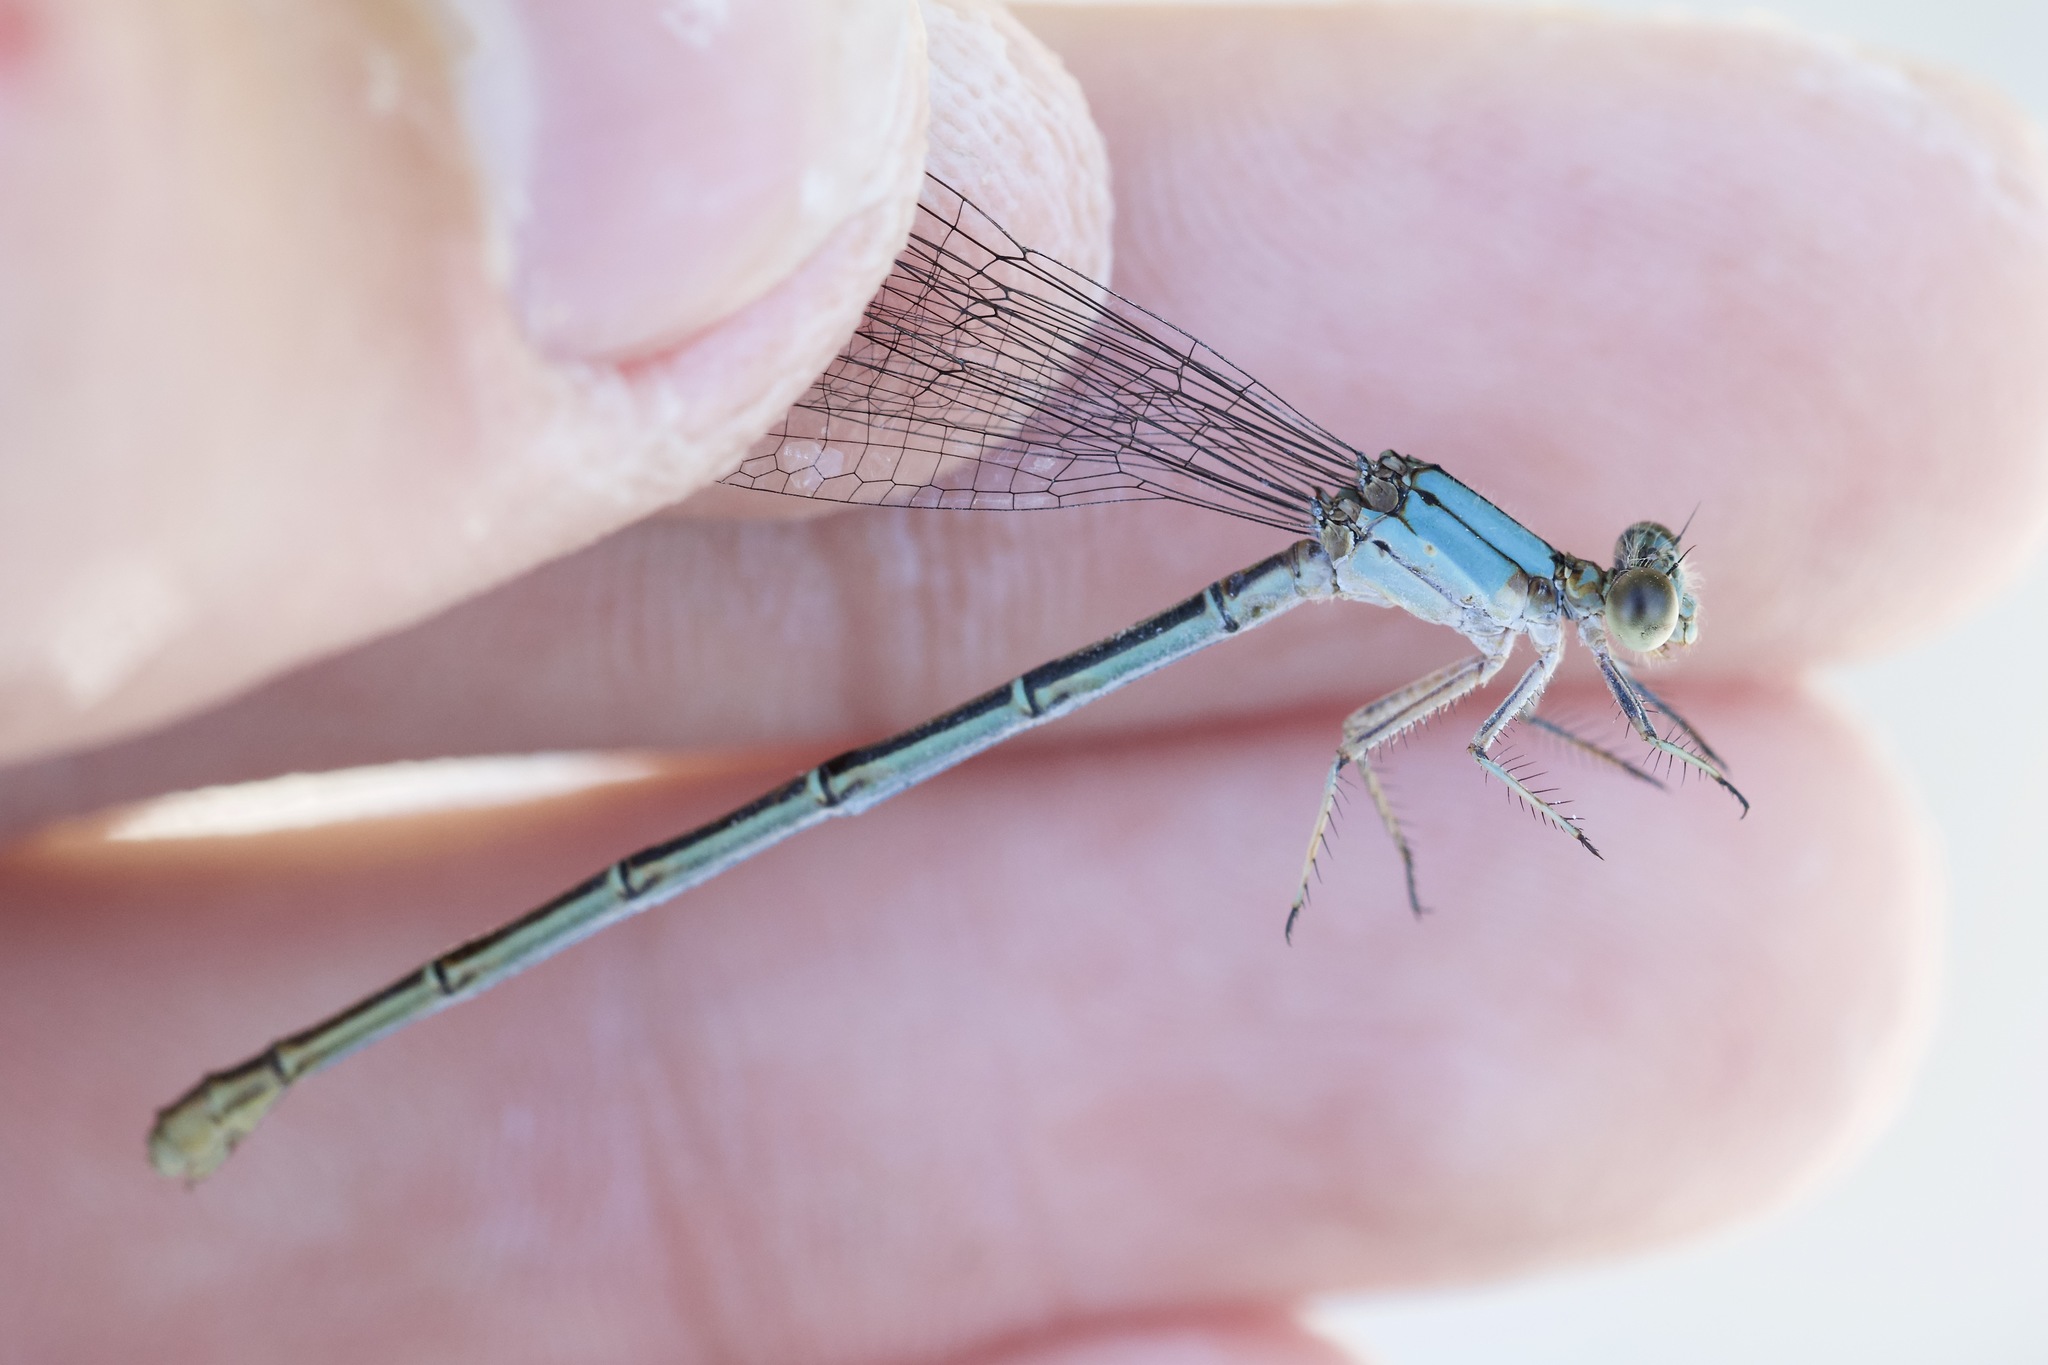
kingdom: Animalia
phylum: Arthropoda
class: Insecta
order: Odonata
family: Coenagrionidae
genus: Argia
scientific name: Argia moesta
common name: Powdered dancer
